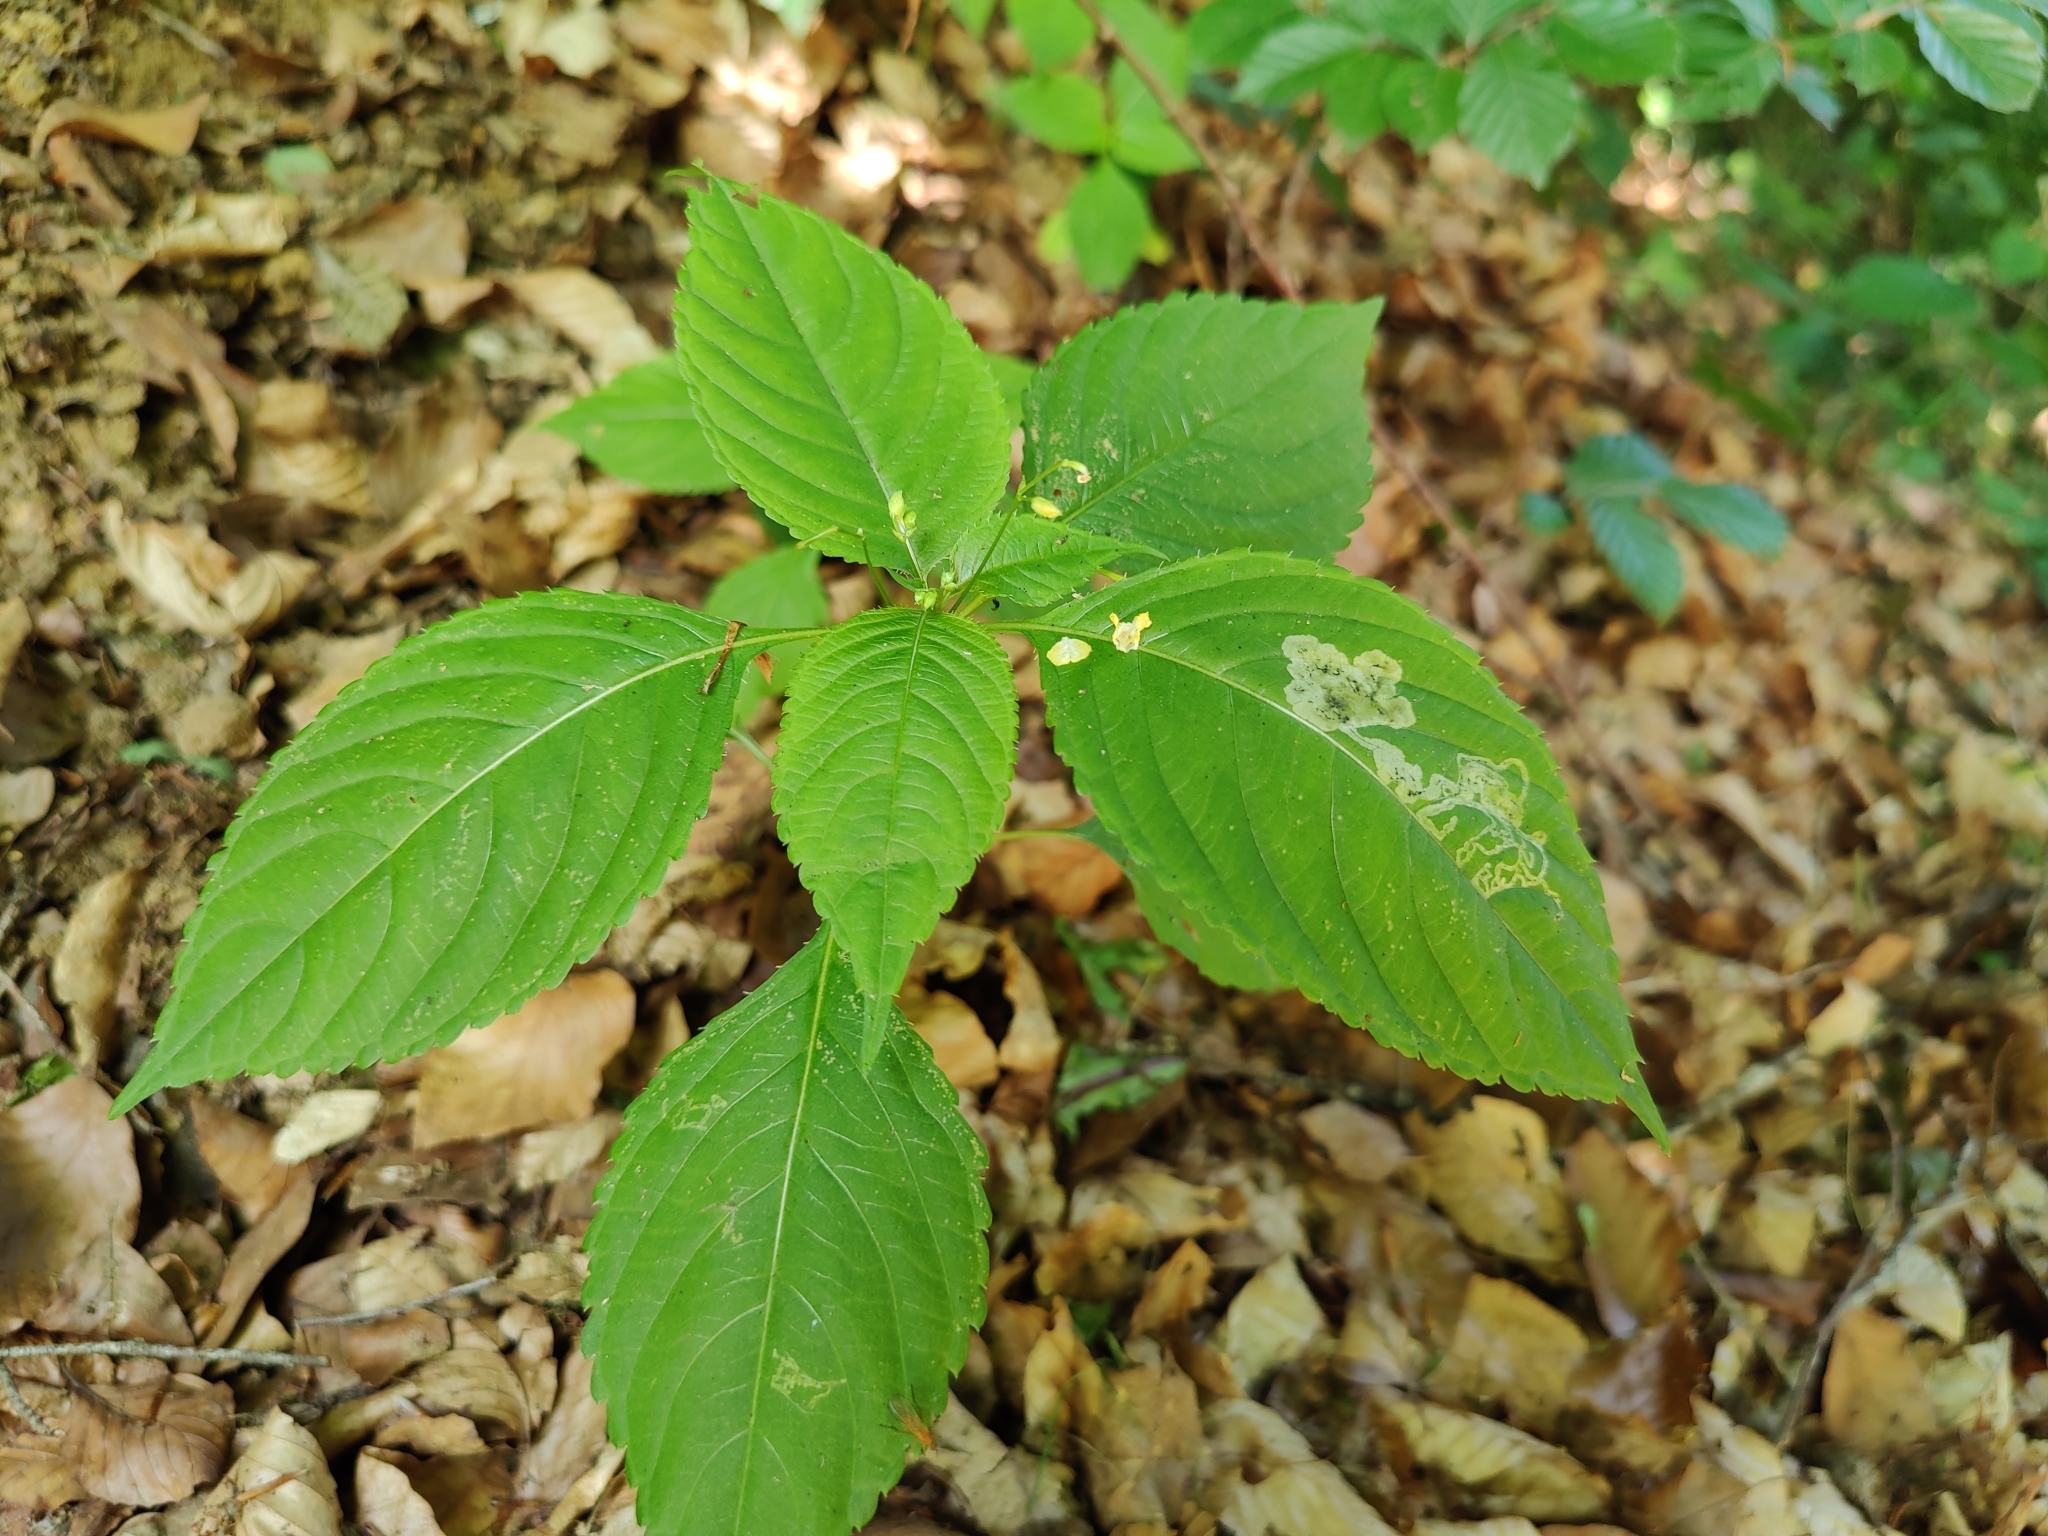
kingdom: Plantae
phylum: Tracheophyta
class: Magnoliopsida
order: Ericales
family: Balsaminaceae
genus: Impatiens
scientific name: Impatiens parviflora
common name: Small balsam
